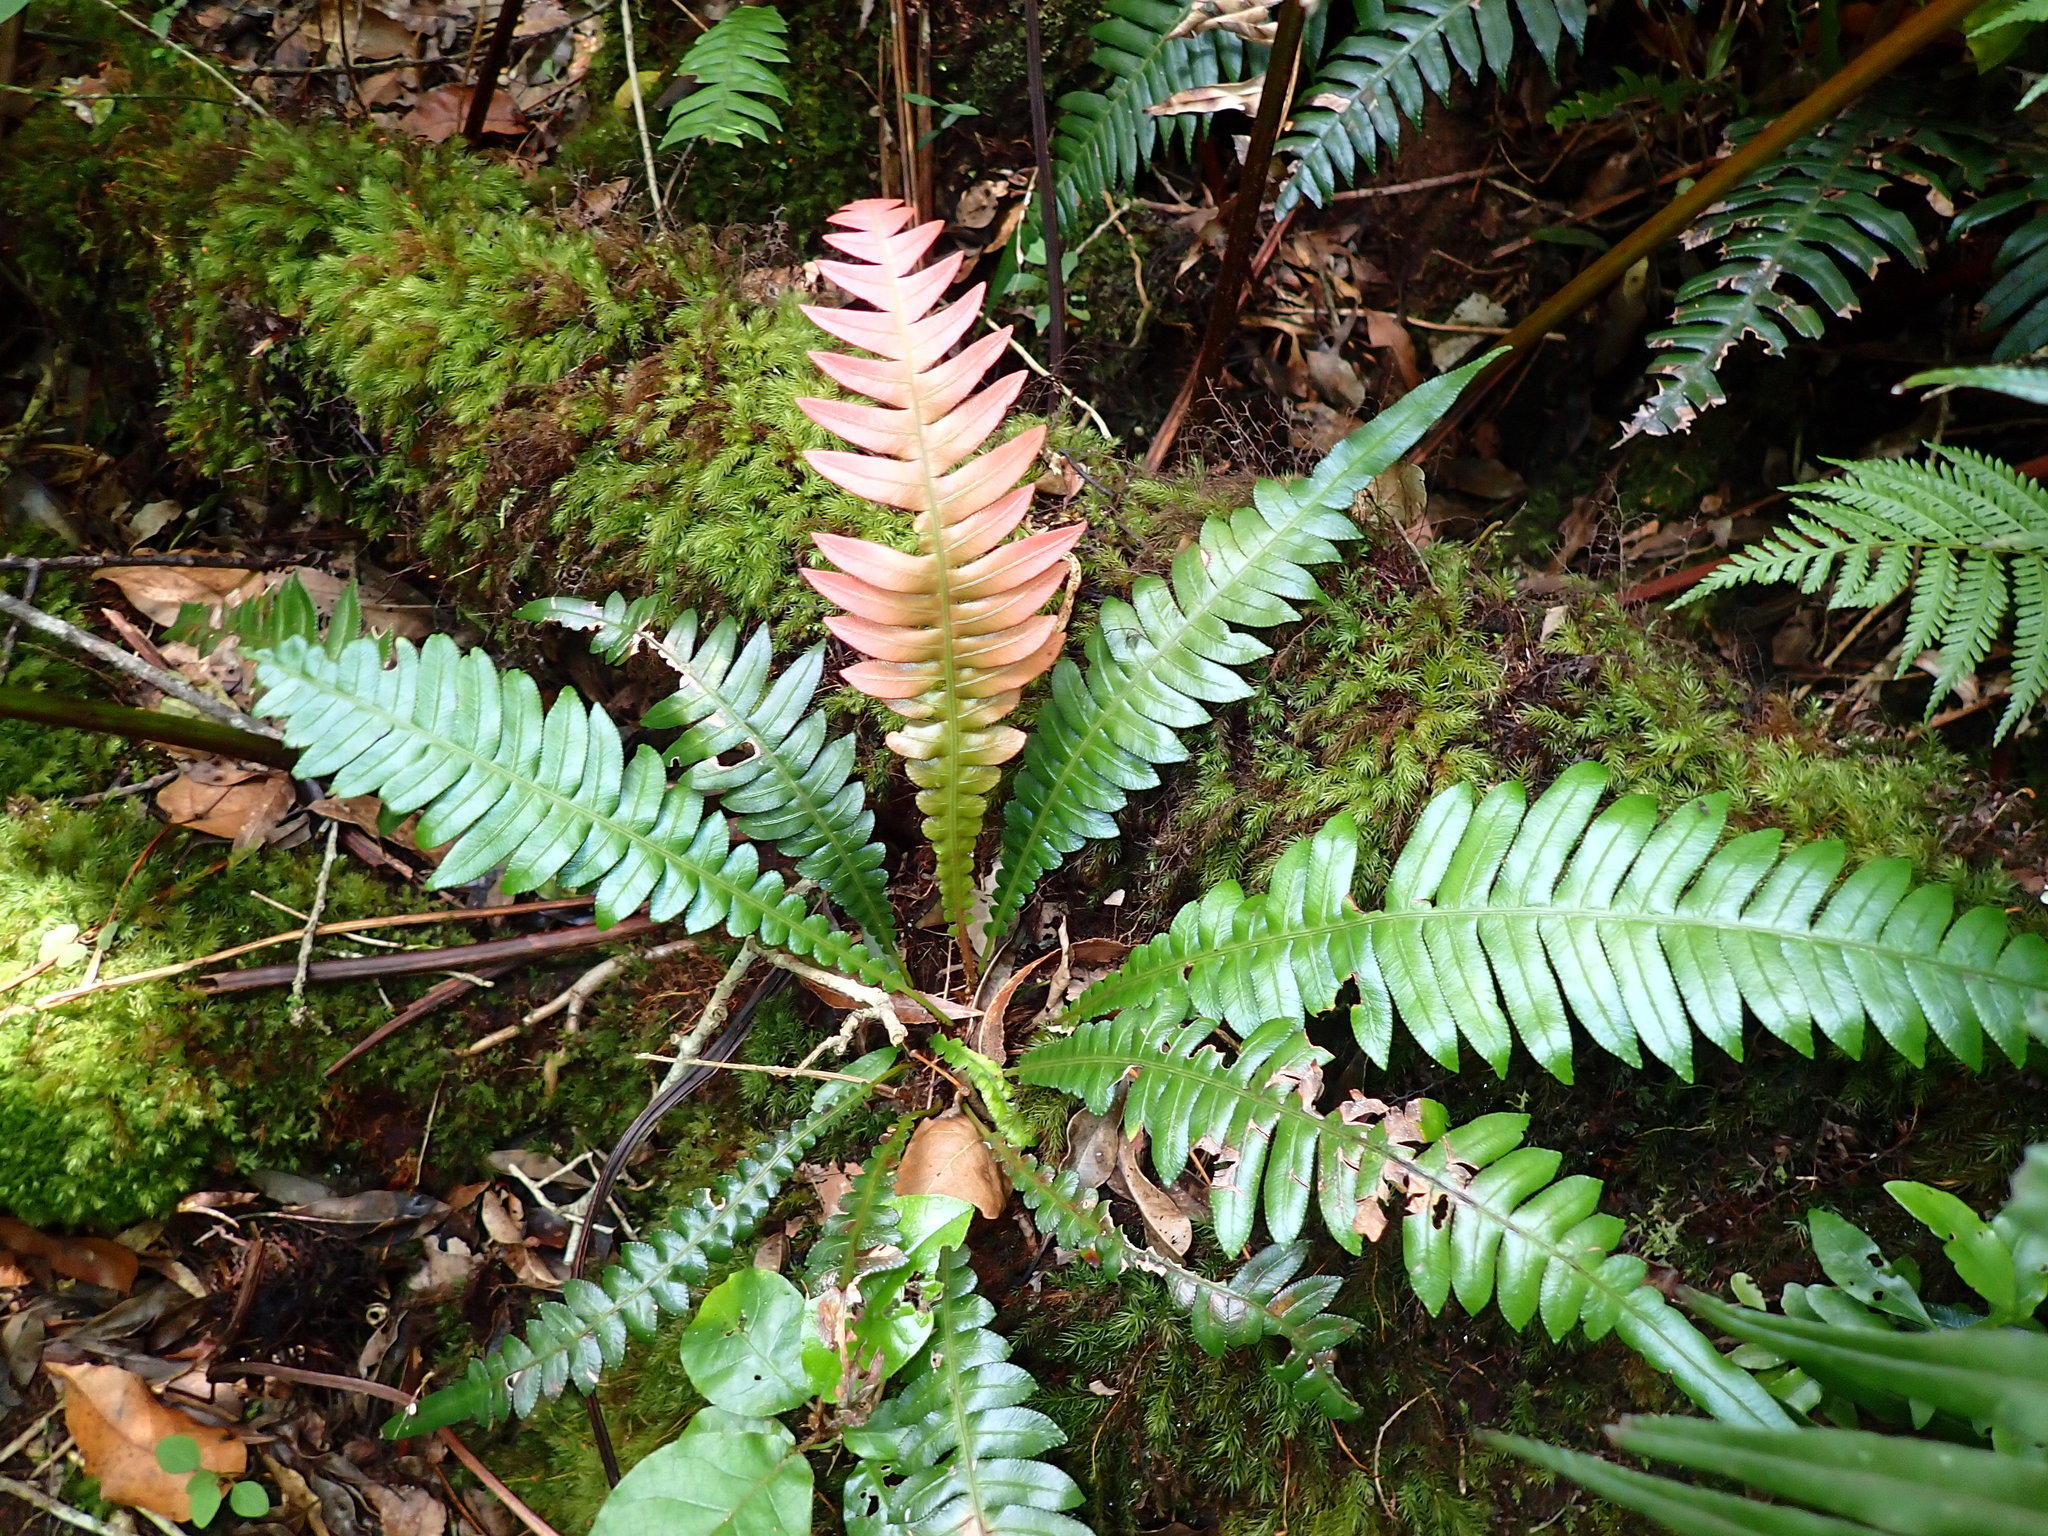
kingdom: Plantae
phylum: Tracheophyta
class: Polypodiopsida
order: Polypodiales
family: Blechnaceae
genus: Lomaridium
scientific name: Lomaridium attenuatum
